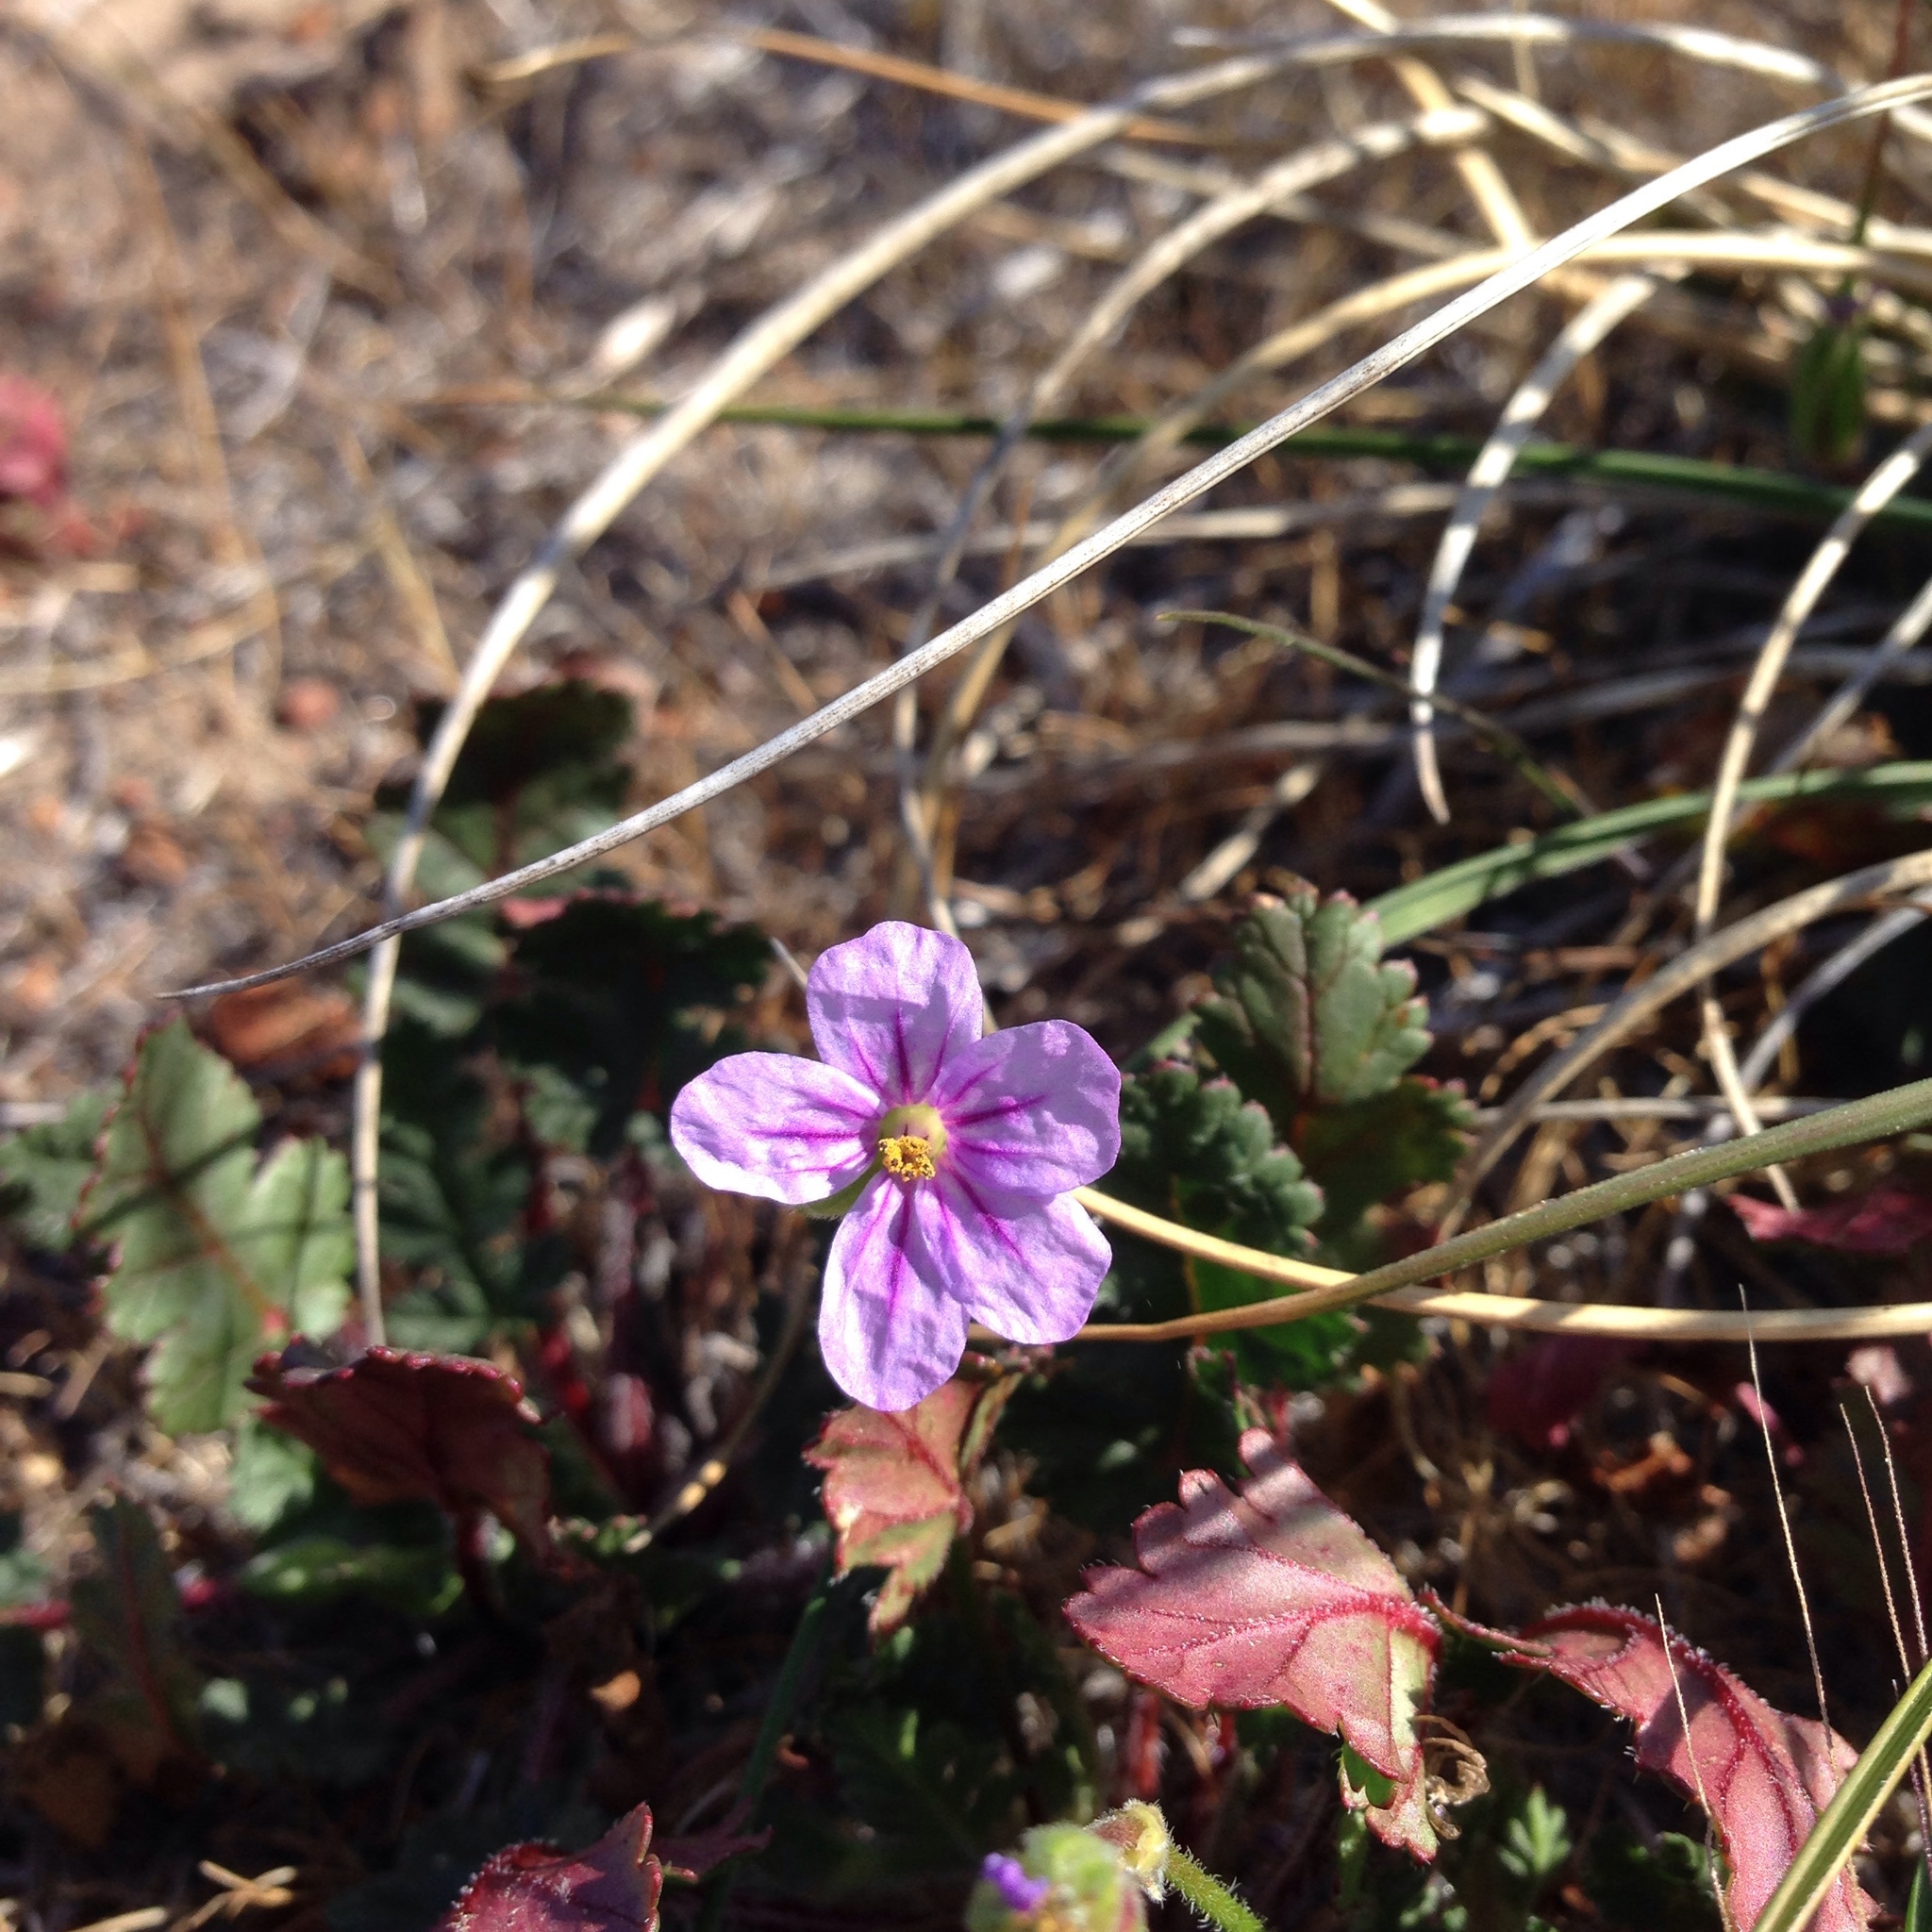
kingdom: Plantae
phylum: Tracheophyta
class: Magnoliopsida
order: Geraniales
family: Geraniaceae
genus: Erodium
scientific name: Erodium botrys
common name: Mediterranean stork's-bill
